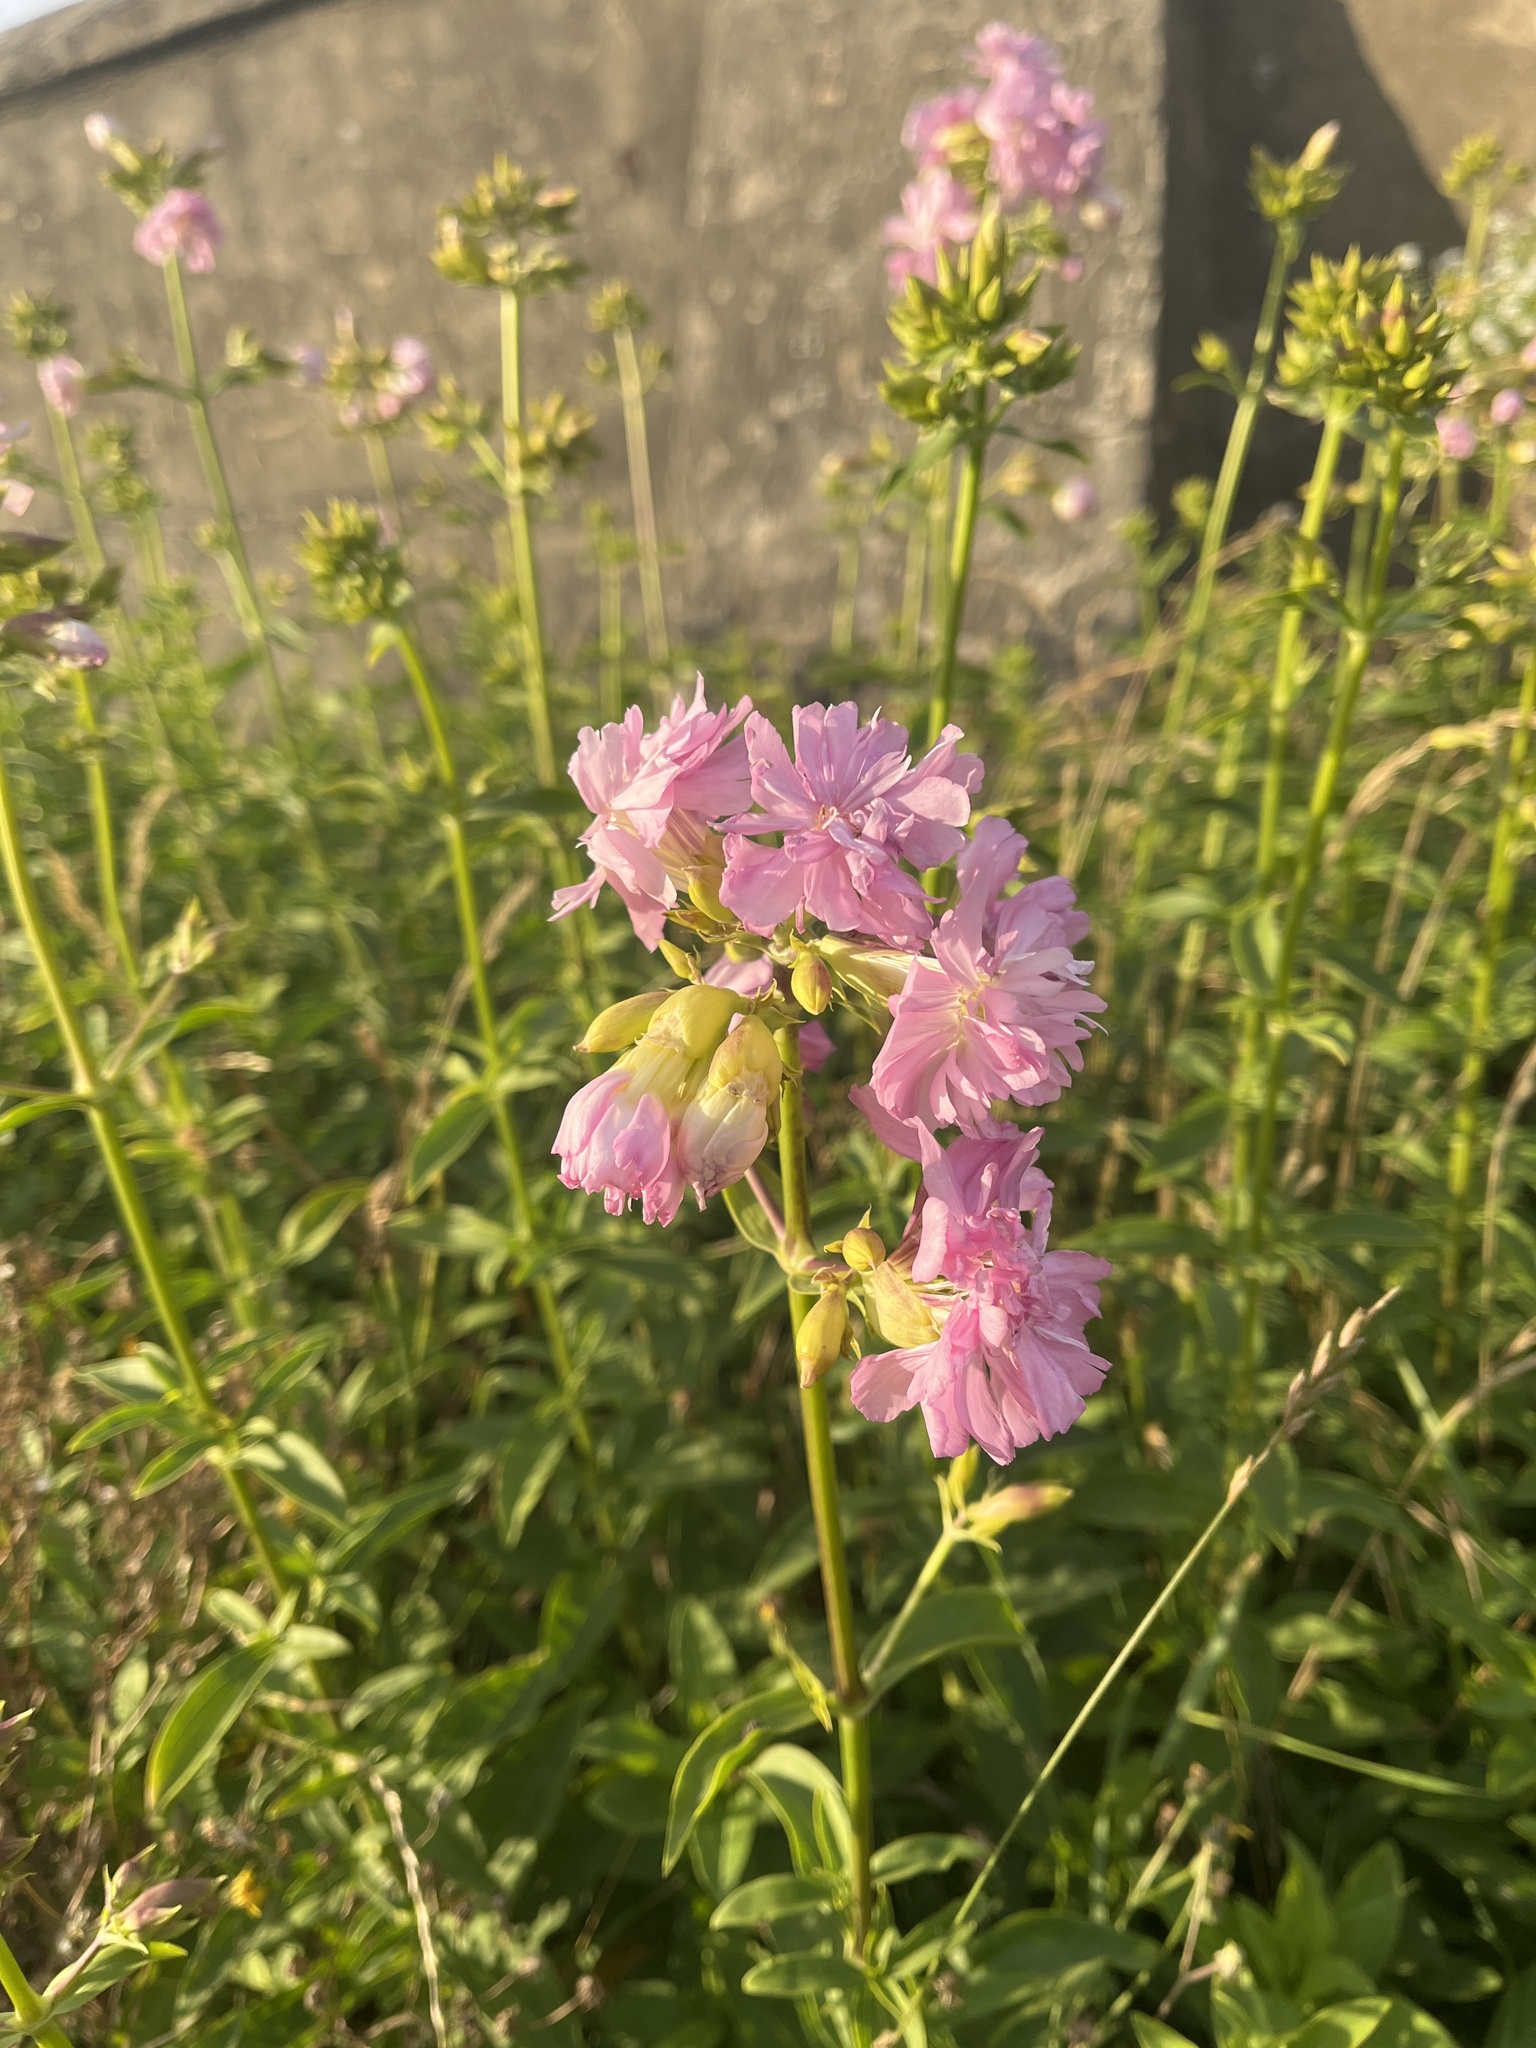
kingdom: Plantae
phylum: Tracheophyta
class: Magnoliopsida
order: Caryophyllales
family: Caryophyllaceae
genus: Saponaria
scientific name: Saponaria officinalis
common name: Soapwort
